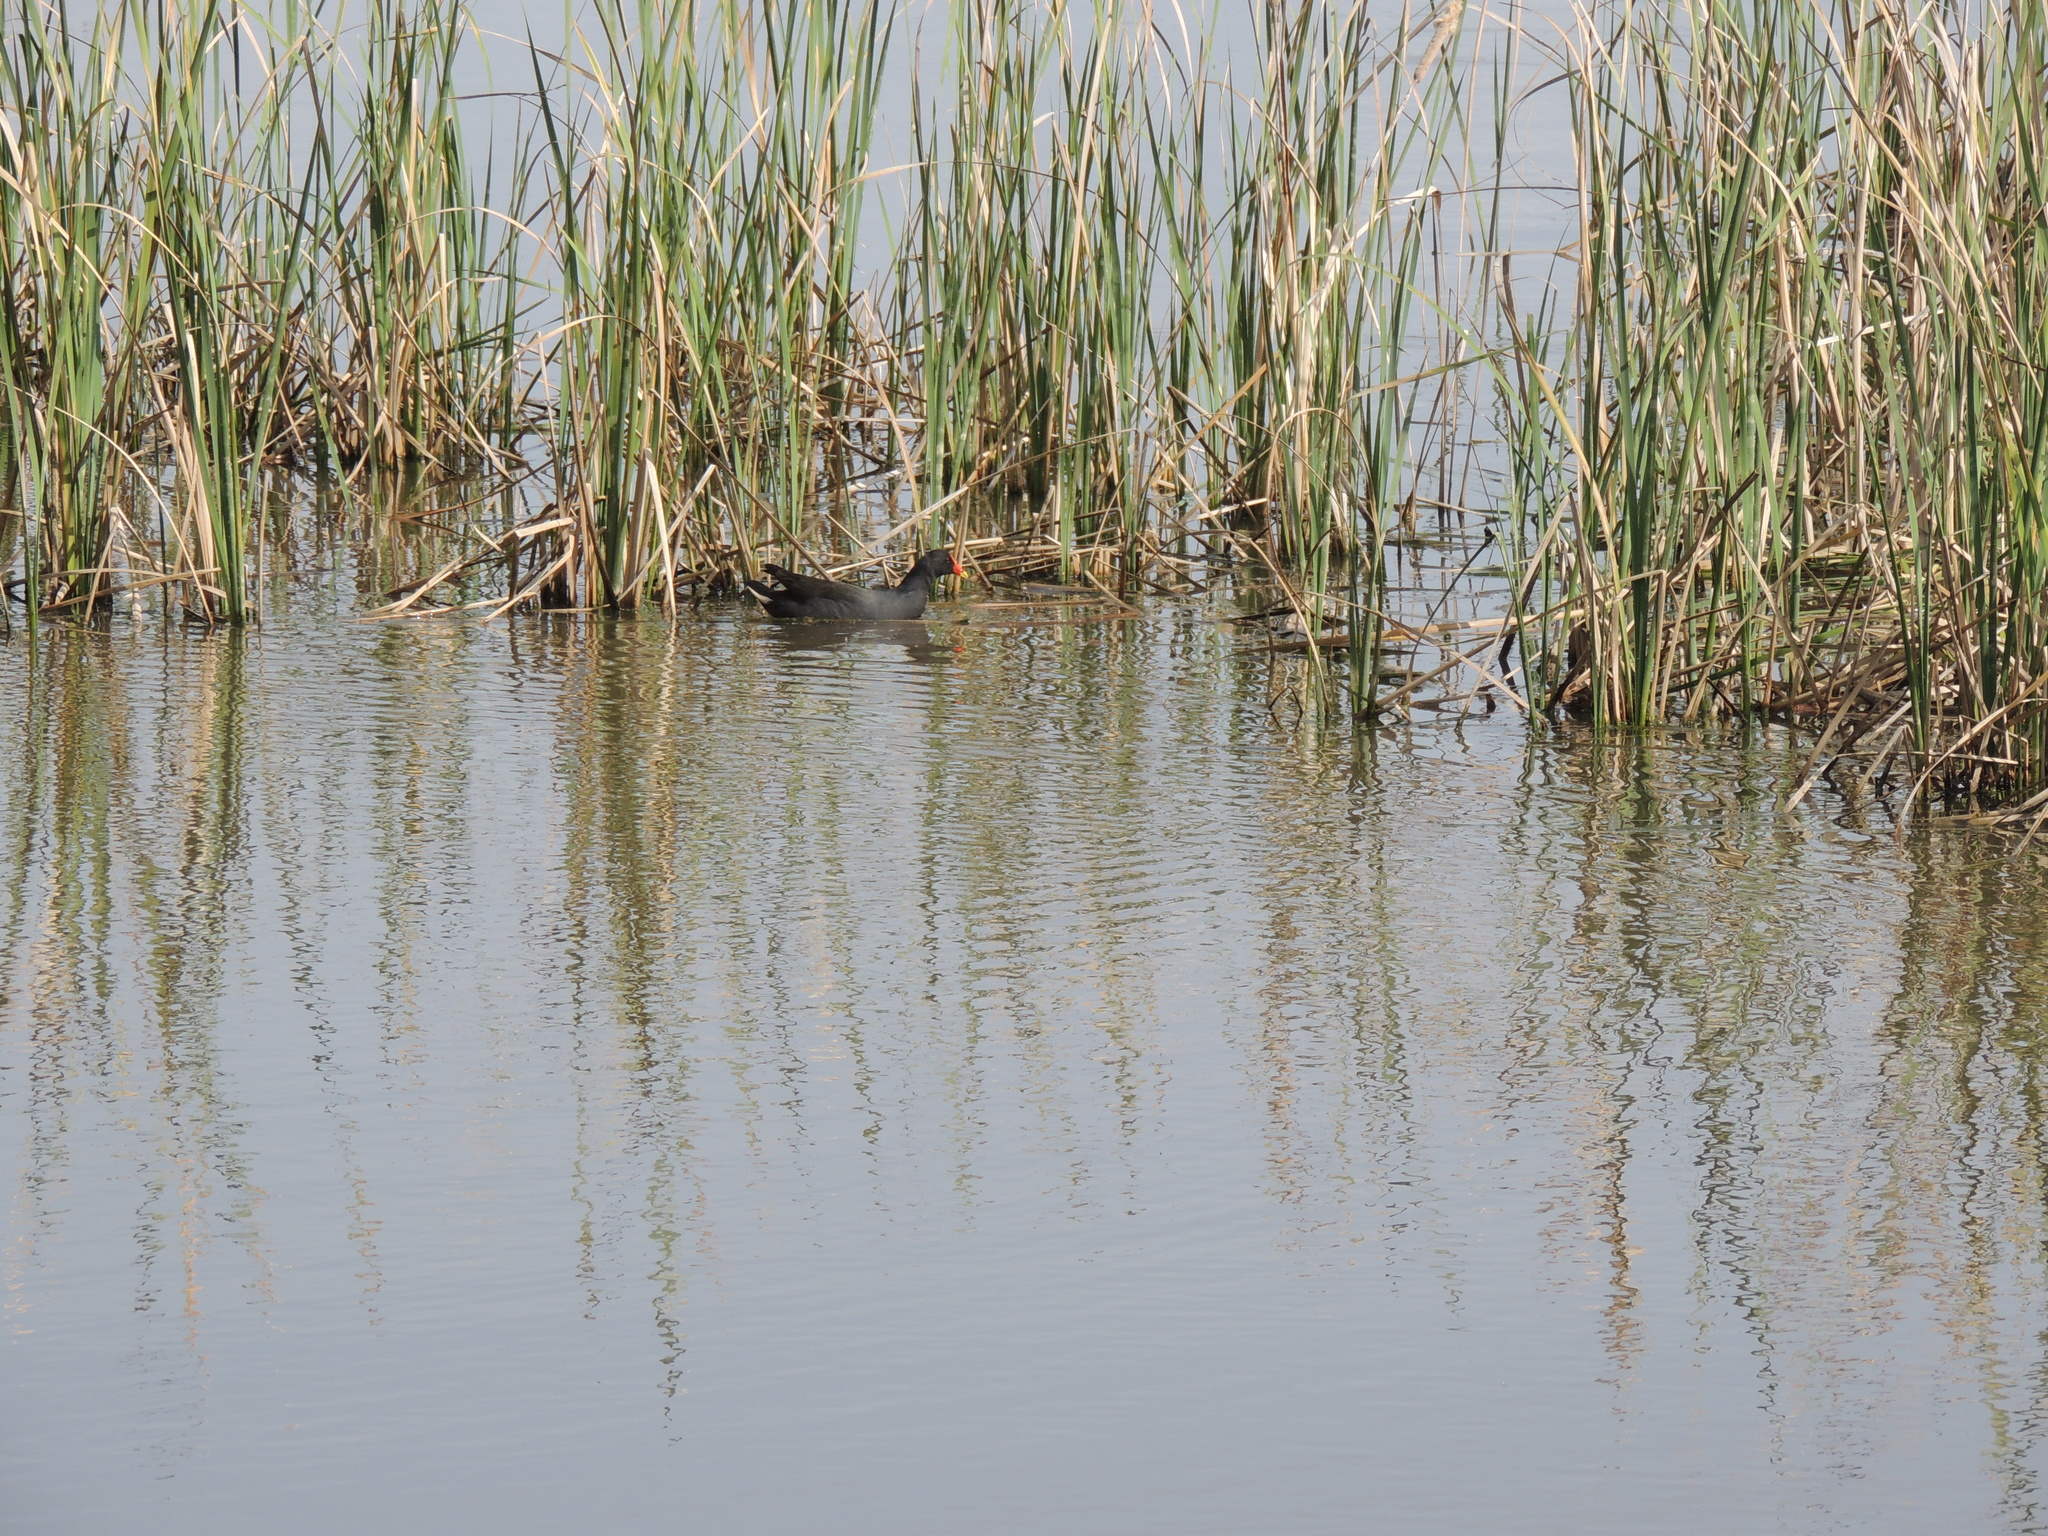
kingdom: Animalia
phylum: Chordata
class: Aves
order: Gruiformes
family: Rallidae
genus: Gallinula
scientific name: Gallinula tenebrosa
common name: Dusky moorhen
